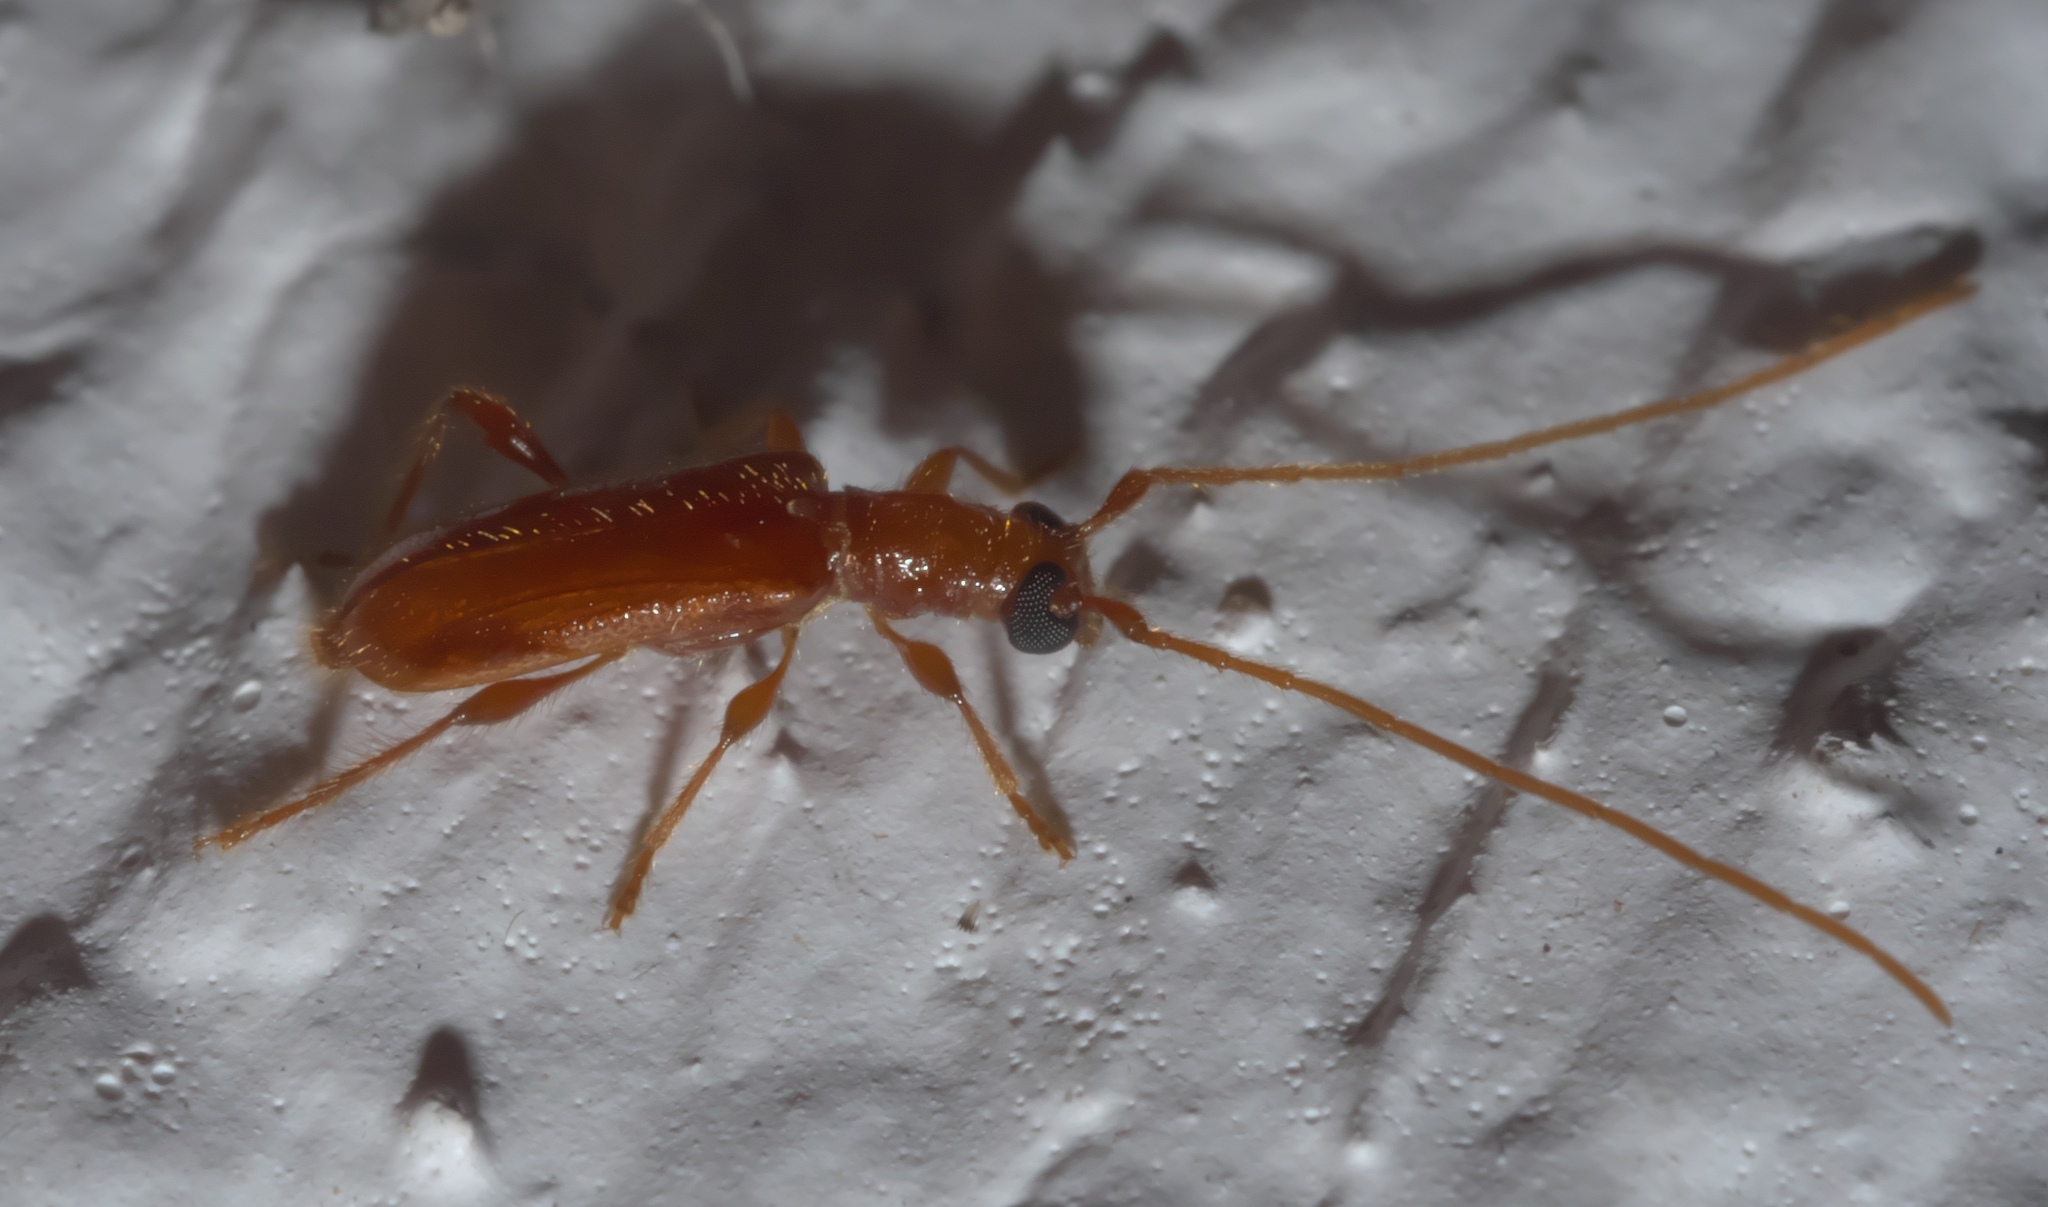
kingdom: Animalia
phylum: Arthropoda
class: Insecta
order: Coleoptera
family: Cerambycidae
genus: Obrium
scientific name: Obrium rufulum
